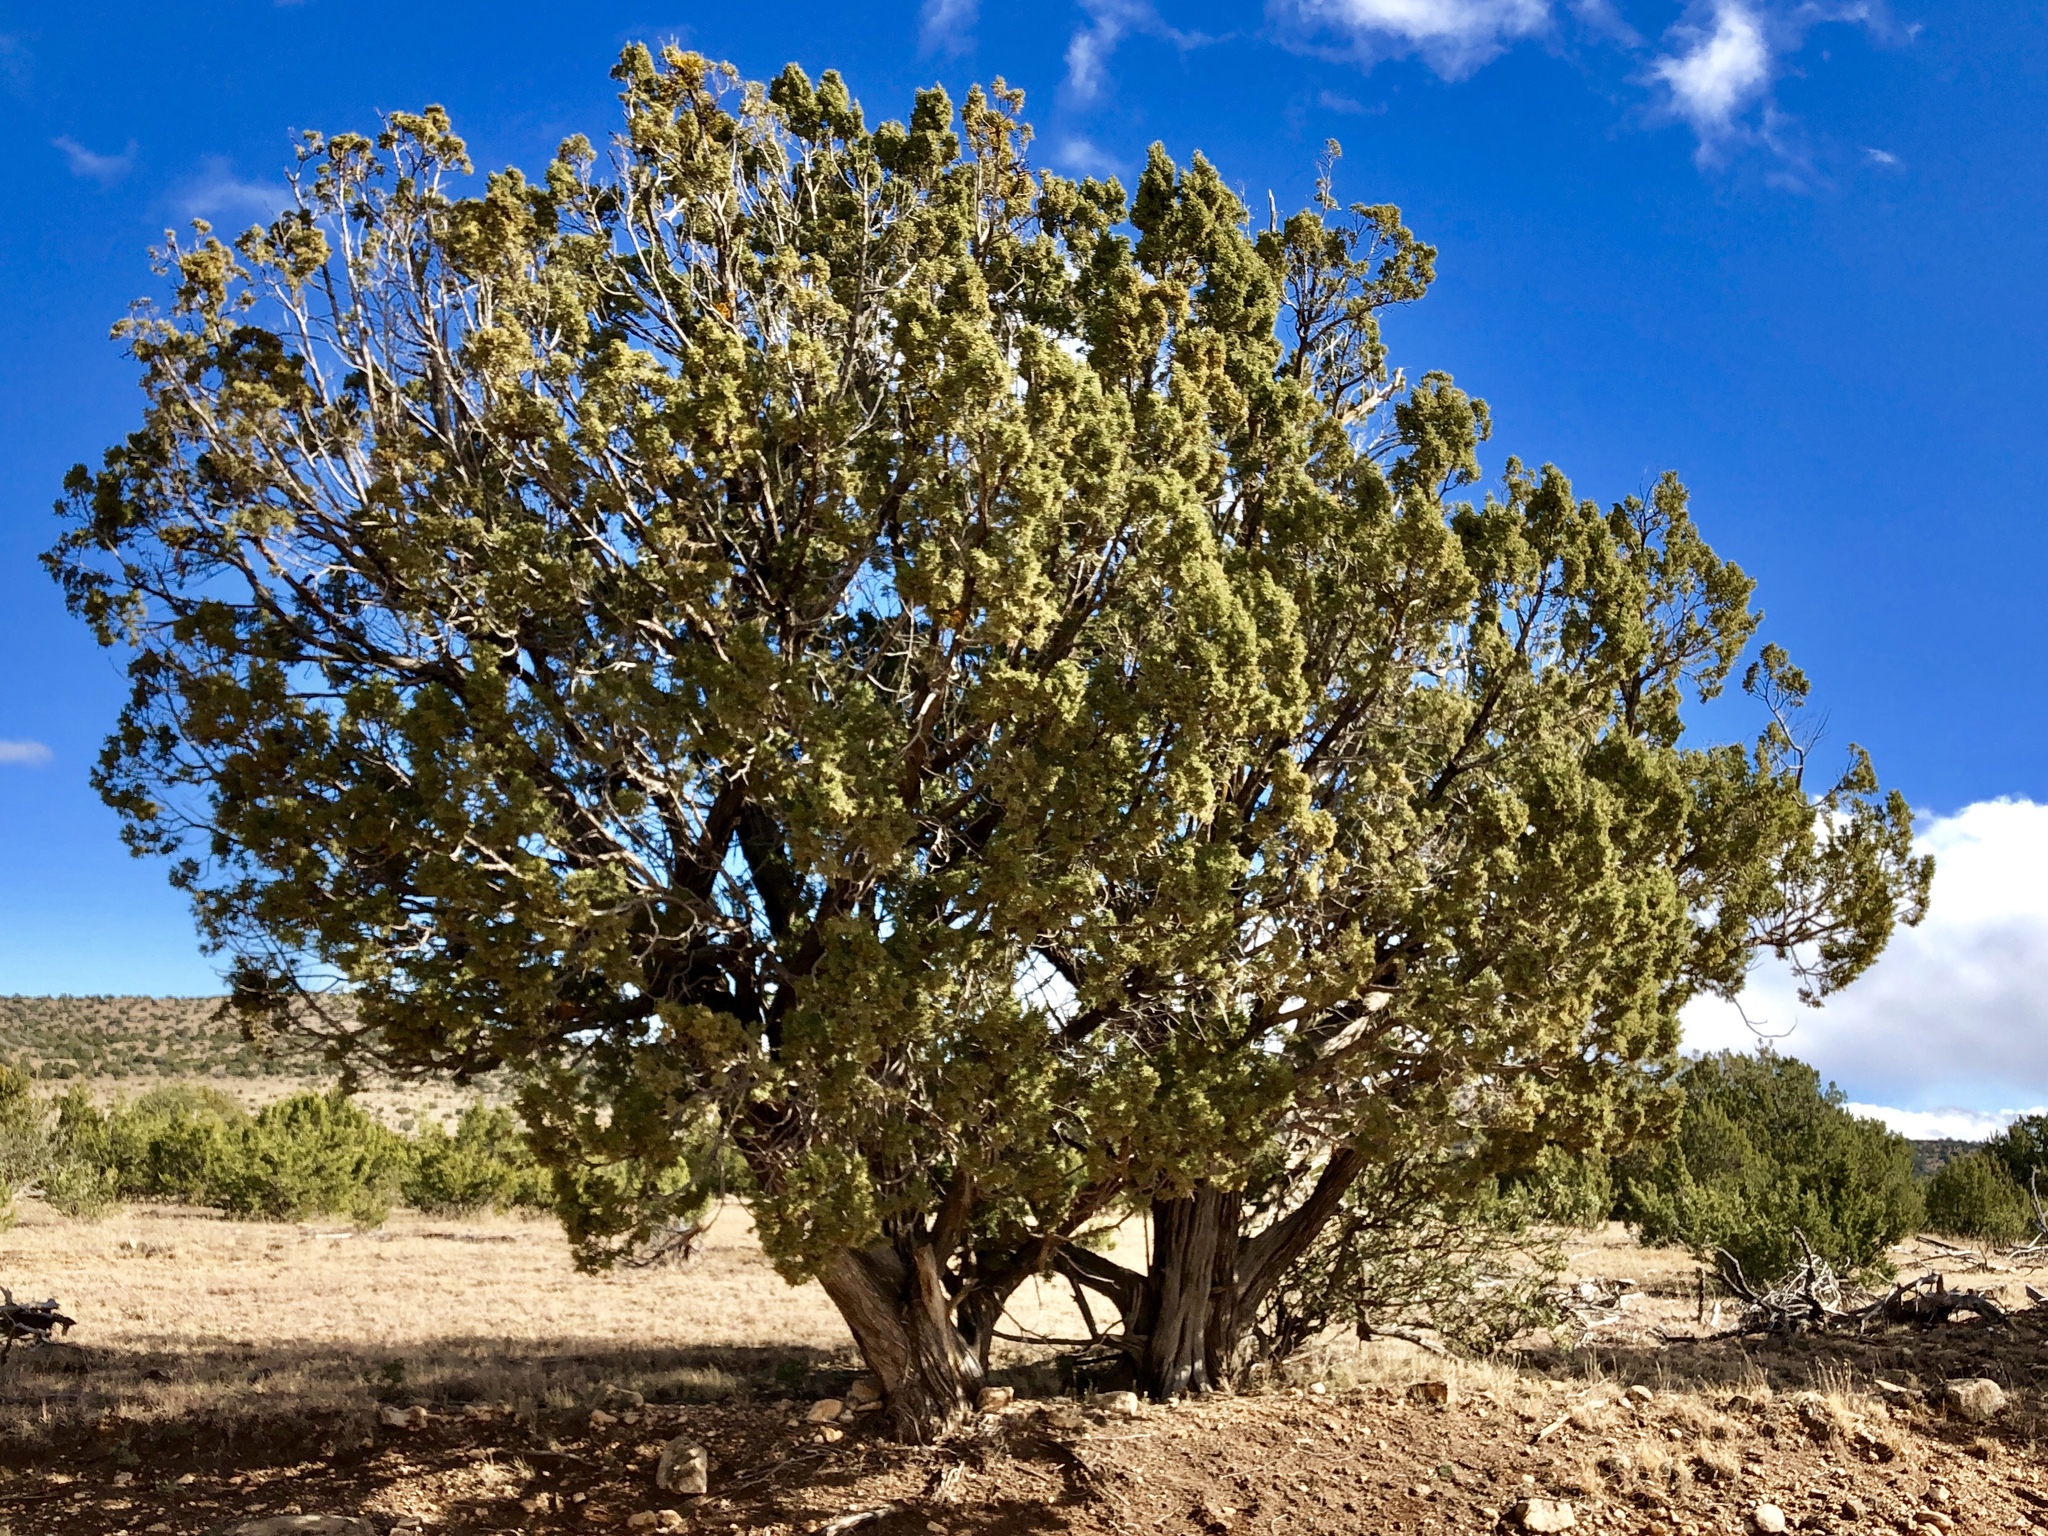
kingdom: Plantae
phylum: Tracheophyta
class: Pinopsida
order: Pinales
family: Cupressaceae
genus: Juniperus
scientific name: Juniperus deppeana
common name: Alligator juniper
